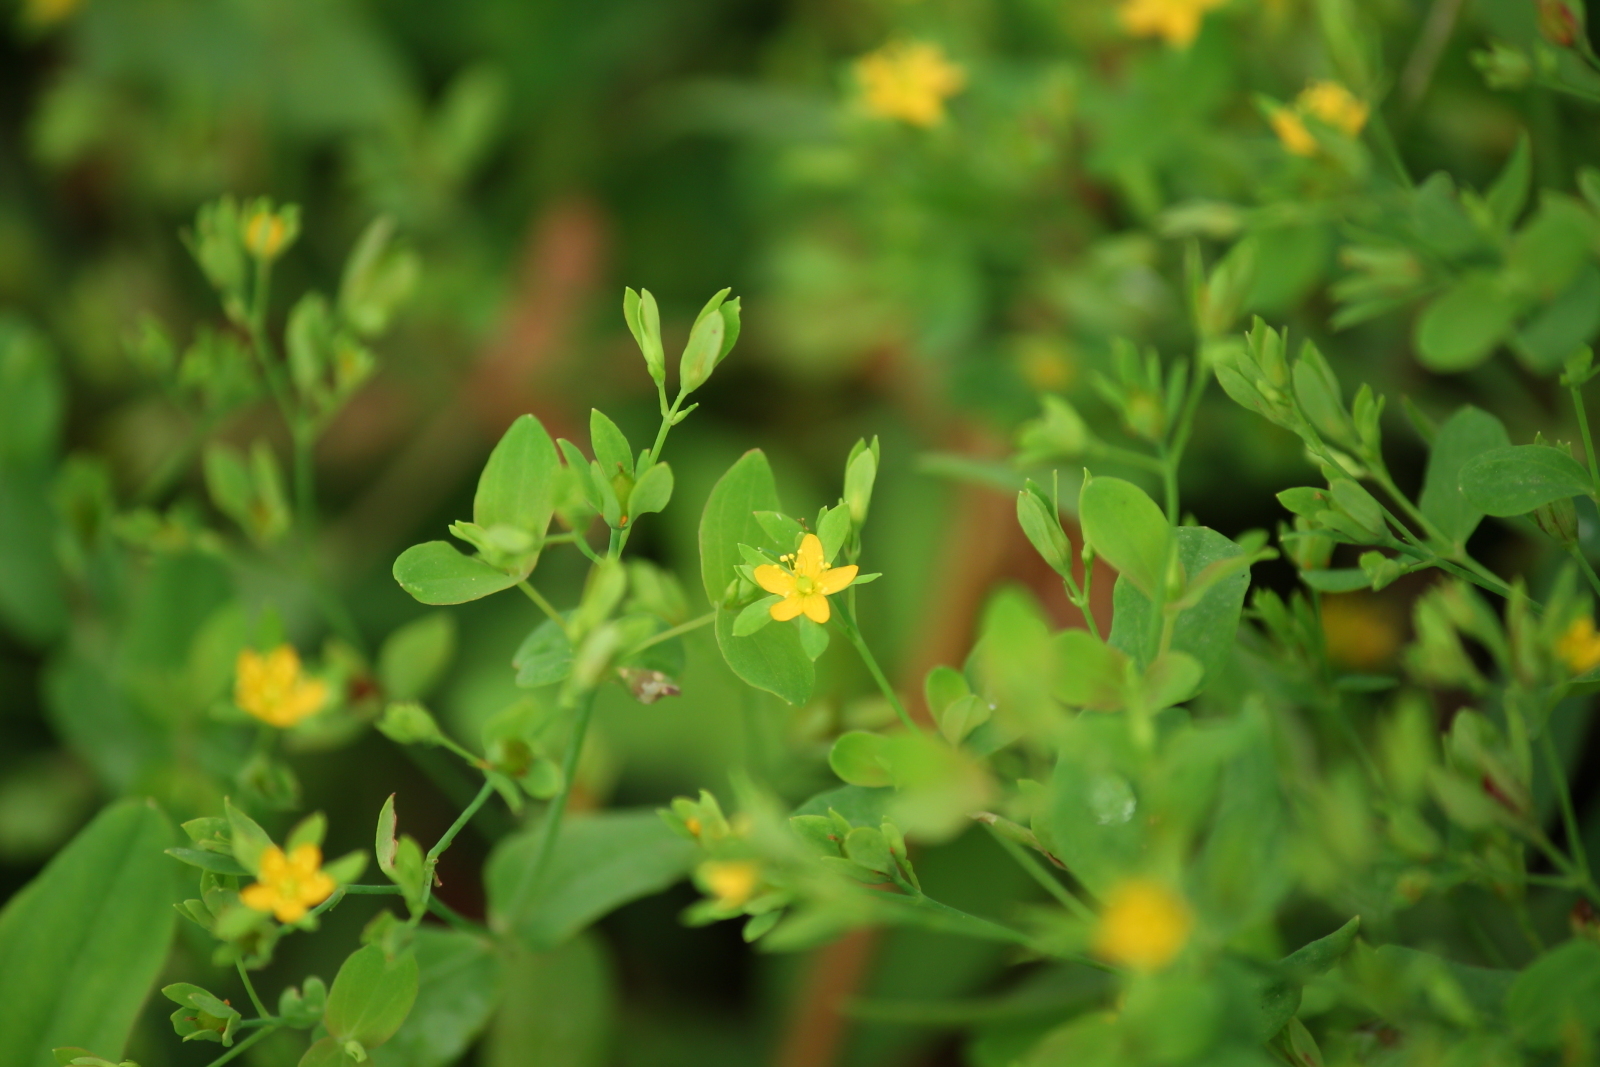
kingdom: Plantae
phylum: Tracheophyta
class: Magnoliopsida
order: Malpighiales
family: Hypericaceae
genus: Hypericum
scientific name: Hypericum mutilum
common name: Dwarf st. john's-wort
